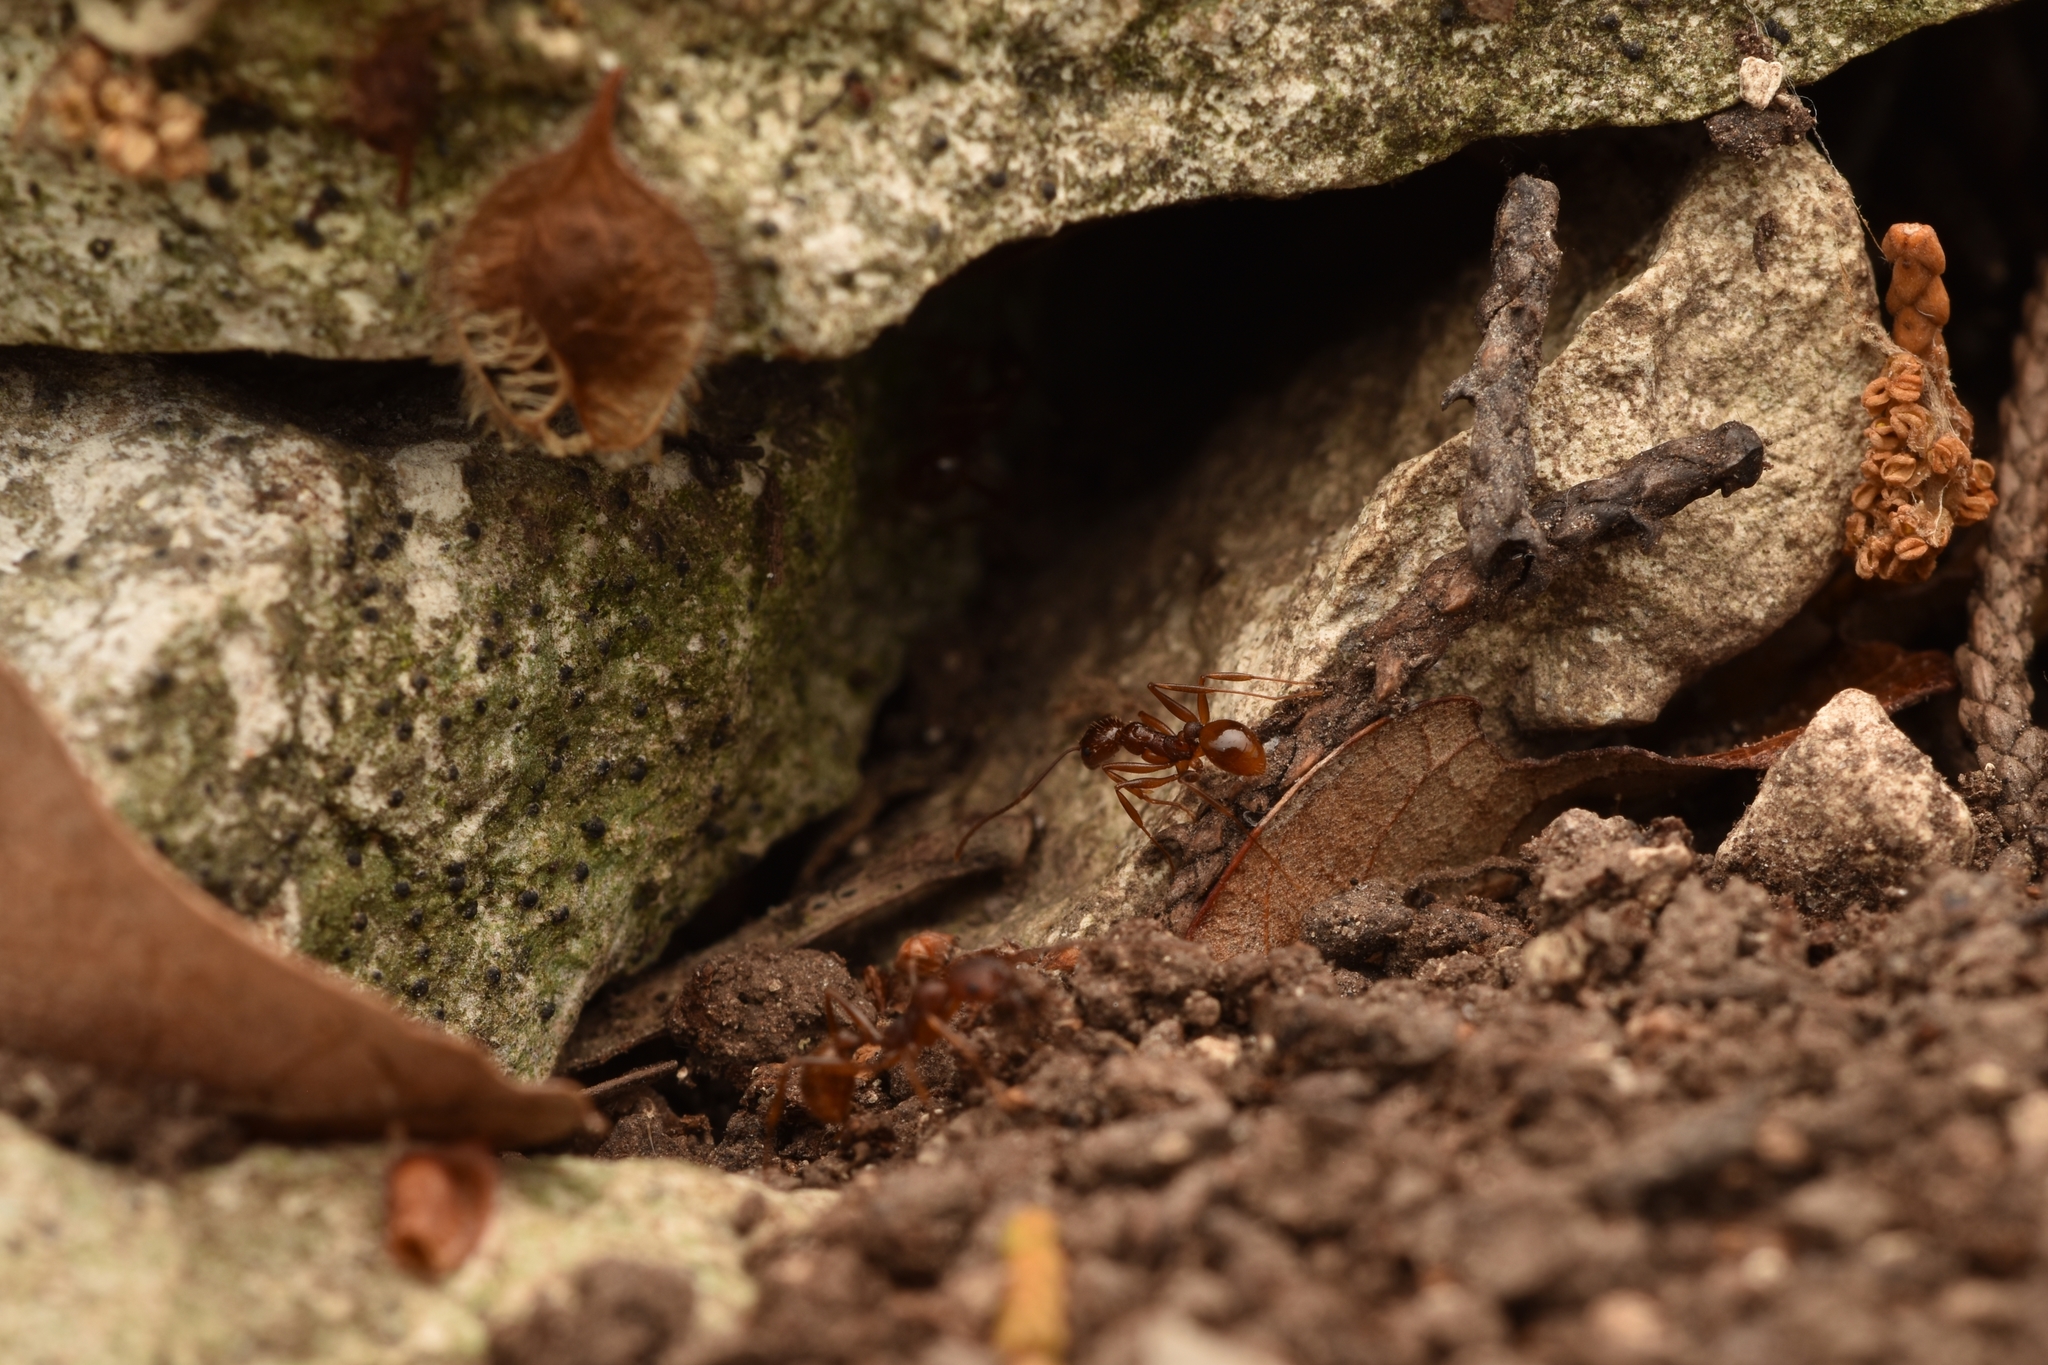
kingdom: Animalia
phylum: Arthropoda
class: Insecta
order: Hymenoptera
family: Formicidae
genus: Aphaenogaster
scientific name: Aphaenogaster texana
